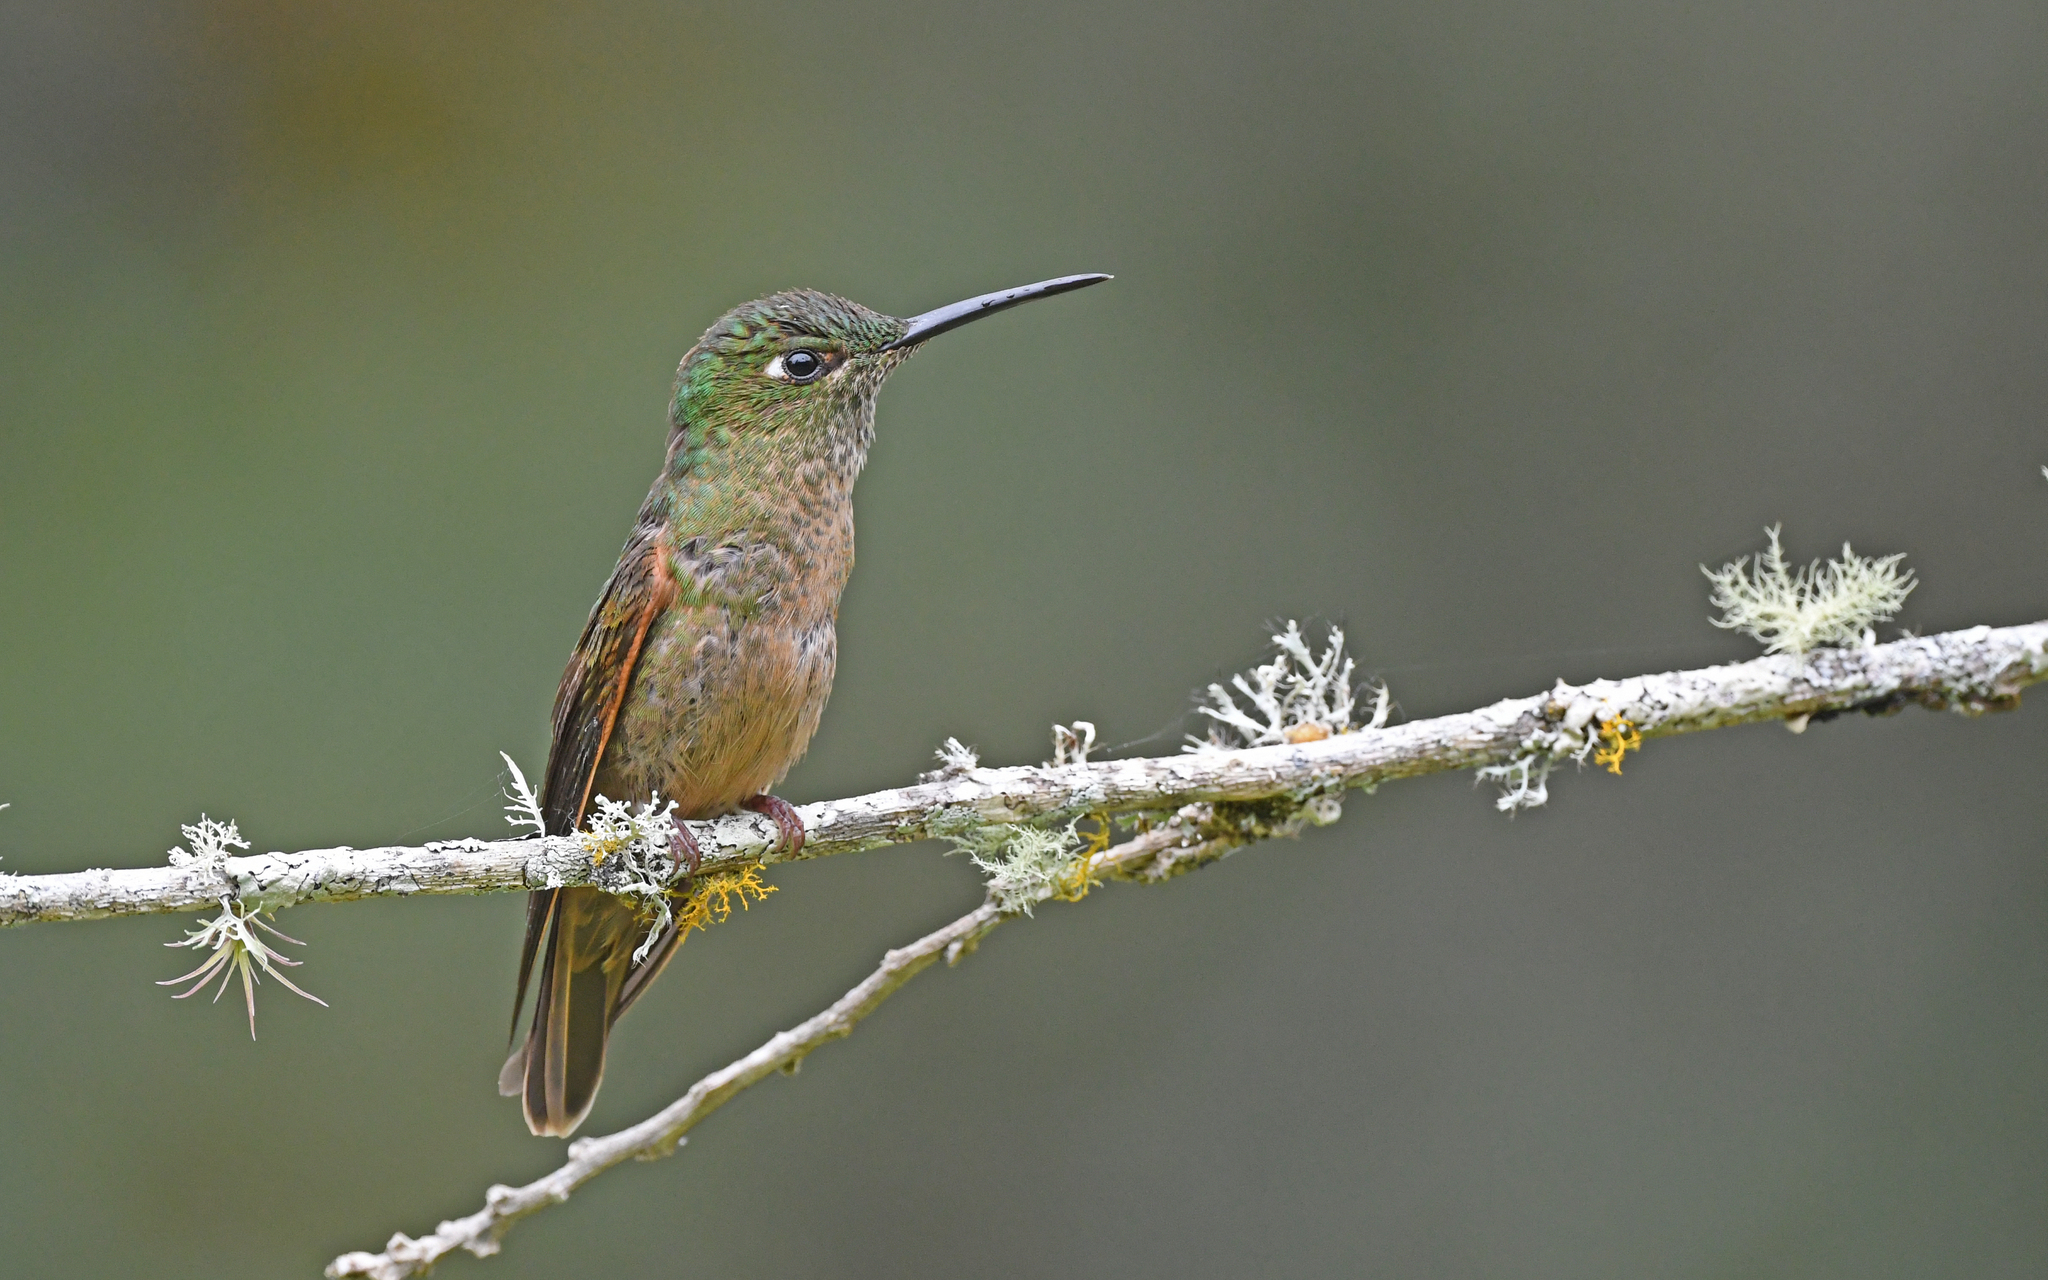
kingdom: Animalia
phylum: Chordata
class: Aves
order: Apodiformes
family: Trochilidae
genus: Heliodoxa
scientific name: Heliodoxa rubinoides
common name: Fawn-breasted brilliant
